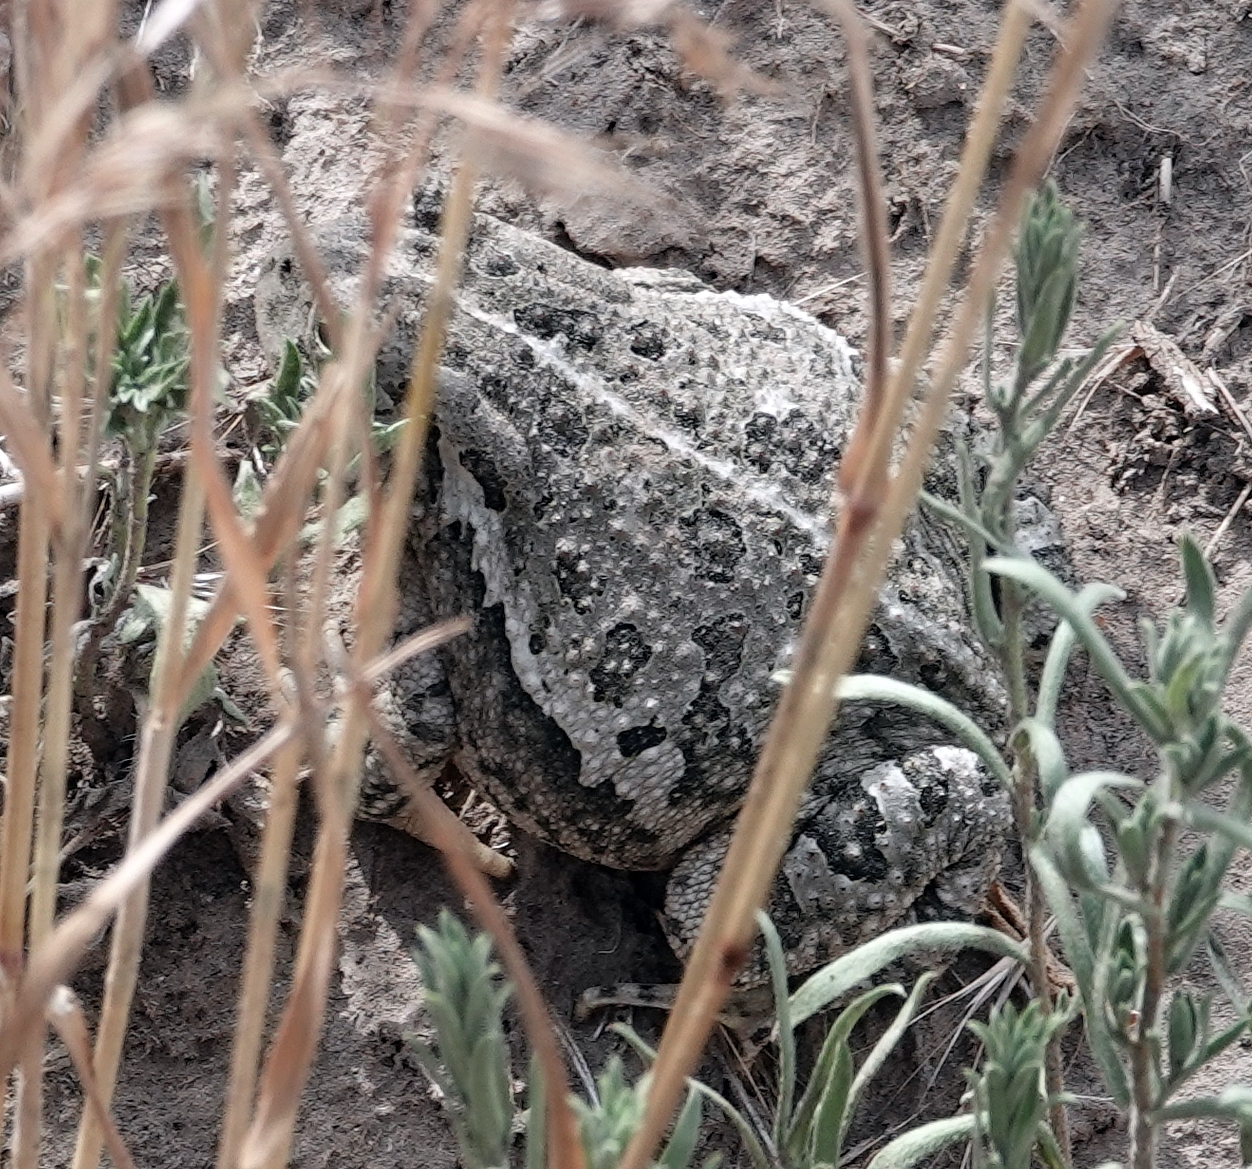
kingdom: Animalia
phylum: Chordata
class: Amphibia
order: Anura
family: Bufonidae
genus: Anaxyrus
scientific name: Anaxyrus woodhousii
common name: Woodhouse's toad
